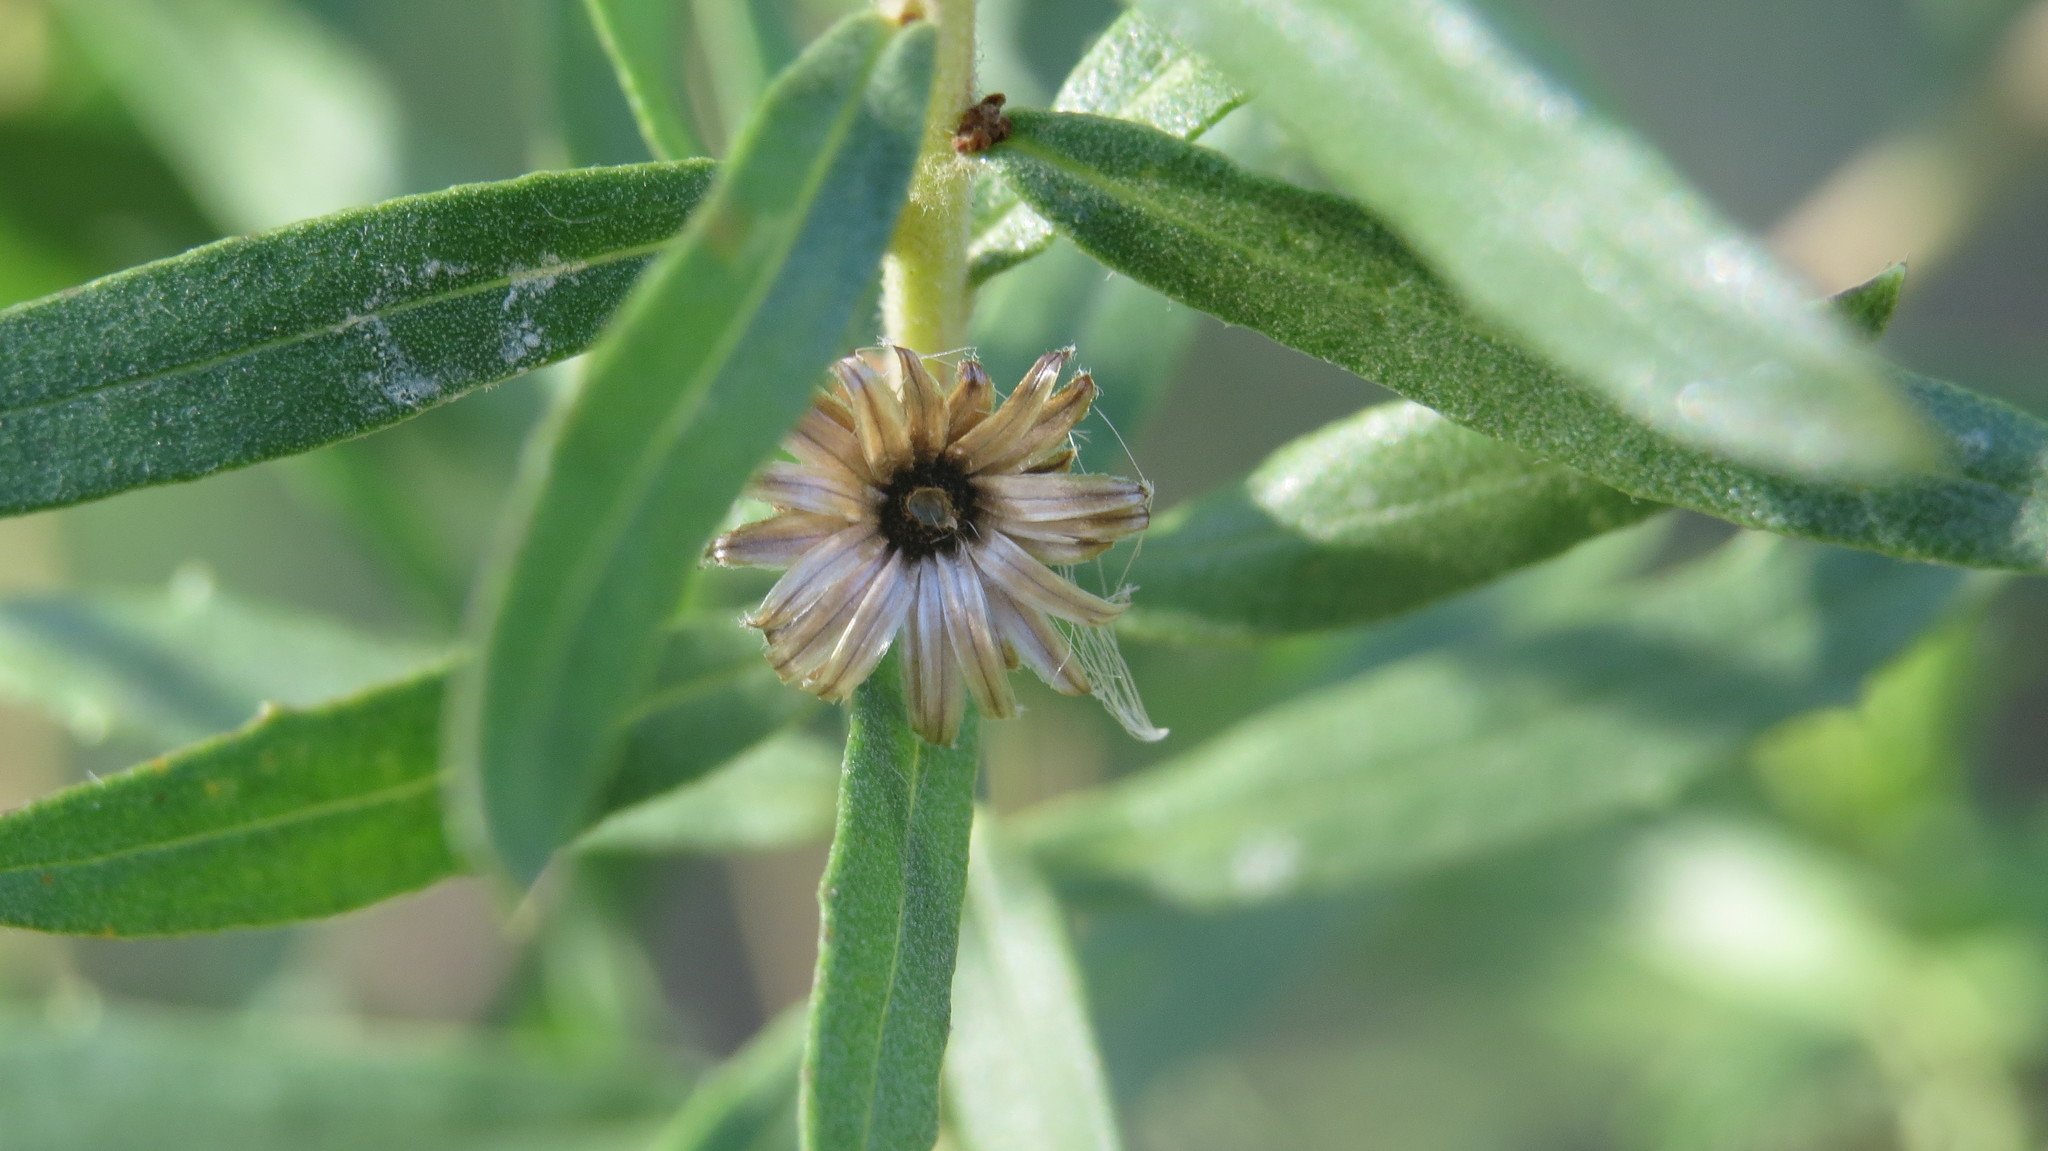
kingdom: Plantae
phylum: Tracheophyta
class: Magnoliopsida
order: Asterales
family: Asteraceae
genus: Baccharis
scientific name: Baccharis dracunculifolia
